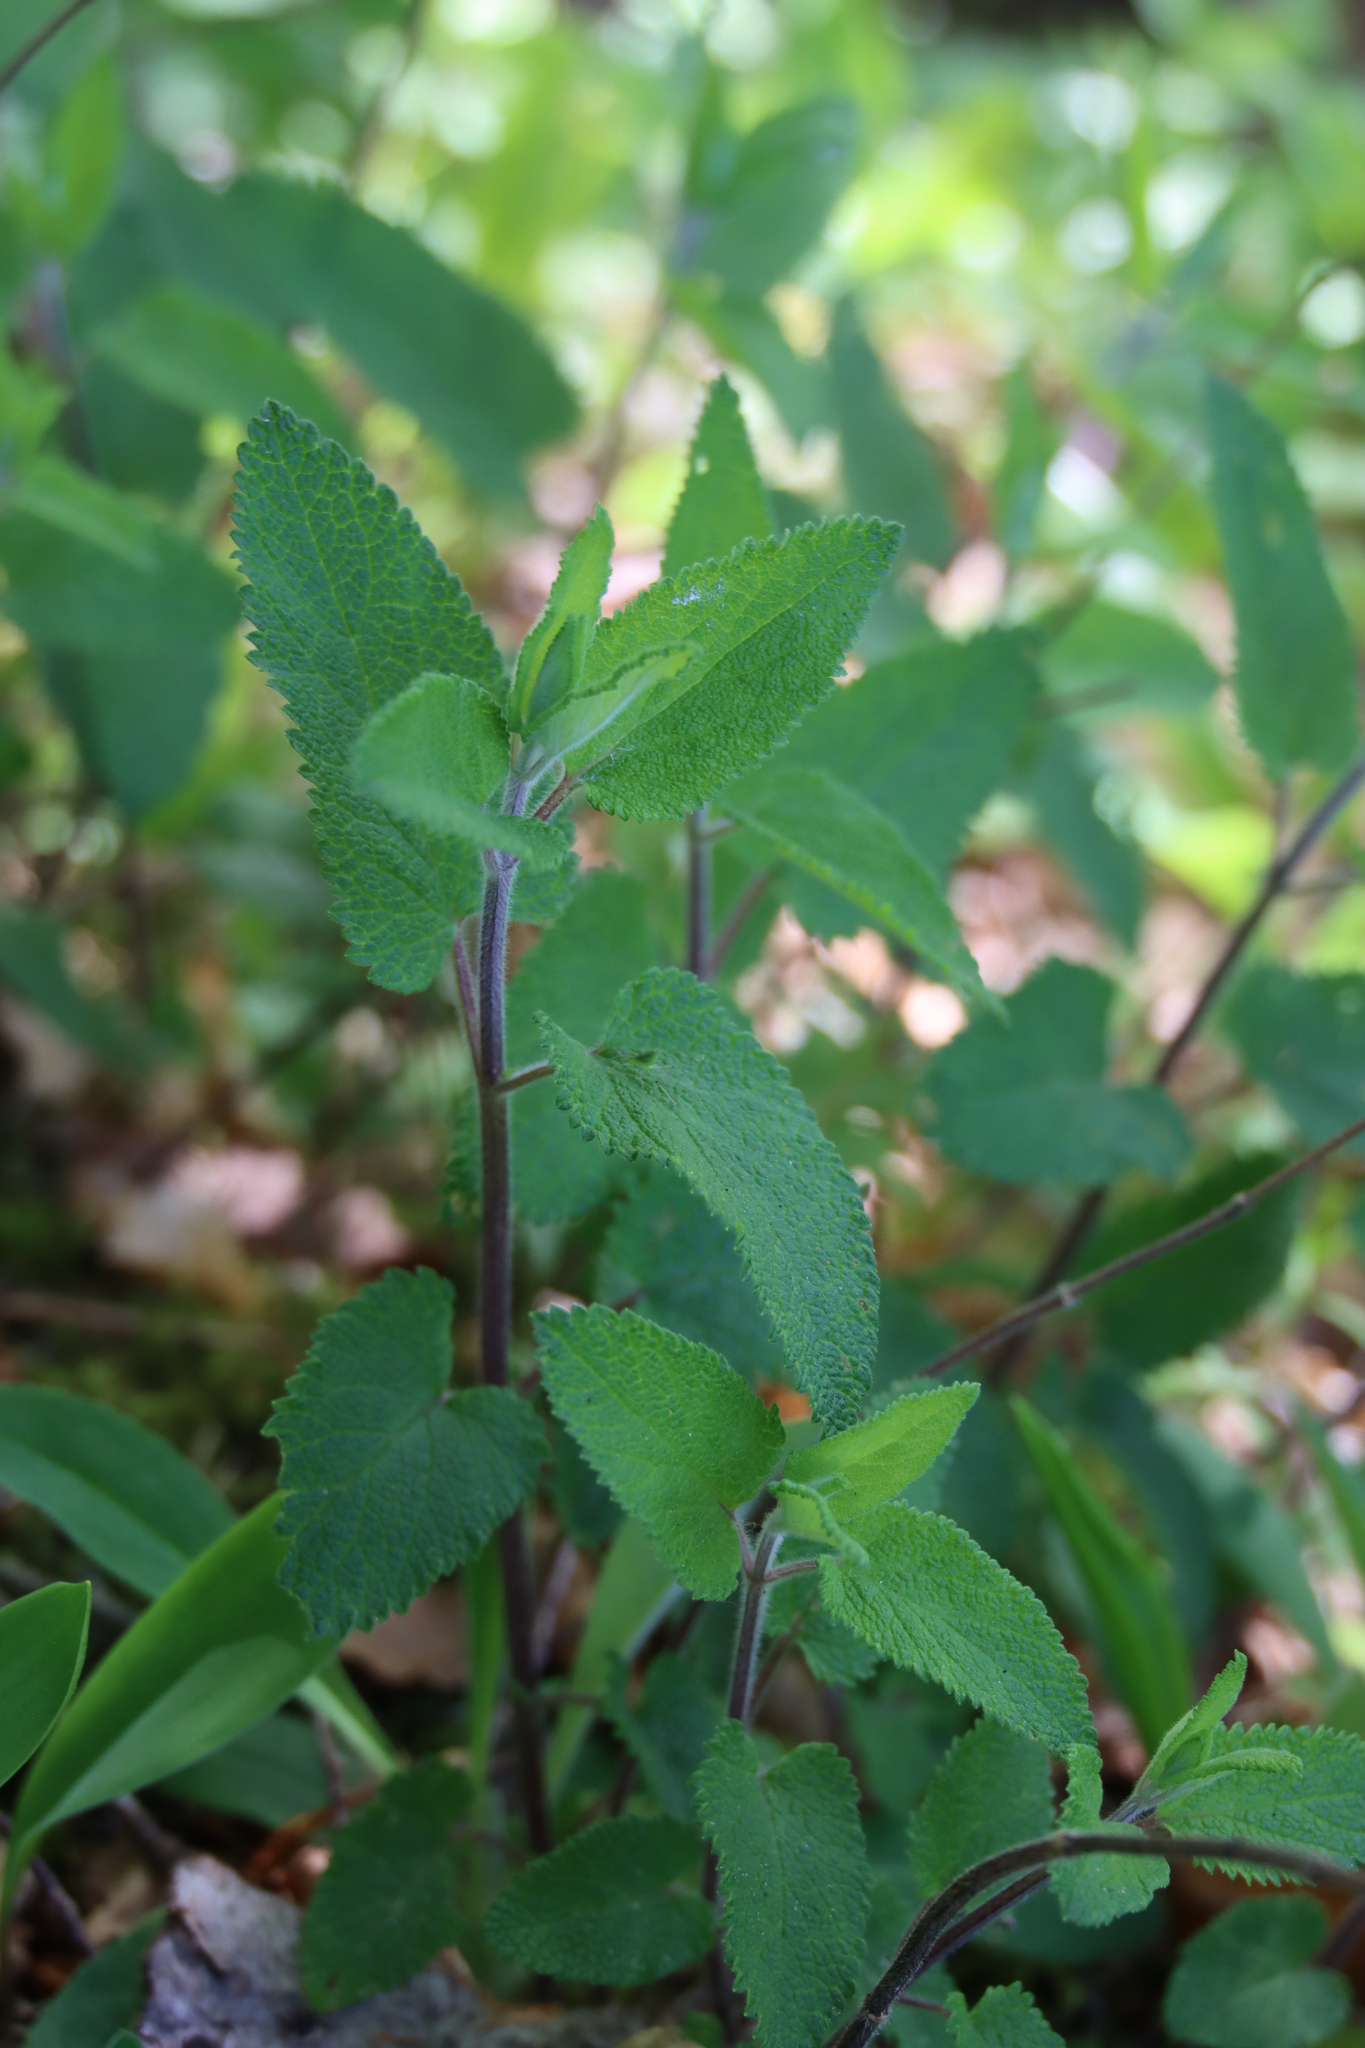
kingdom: Plantae
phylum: Tracheophyta
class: Magnoliopsida
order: Lamiales
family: Lamiaceae
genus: Teucrium
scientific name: Teucrium scorodonia
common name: Woodland germander
